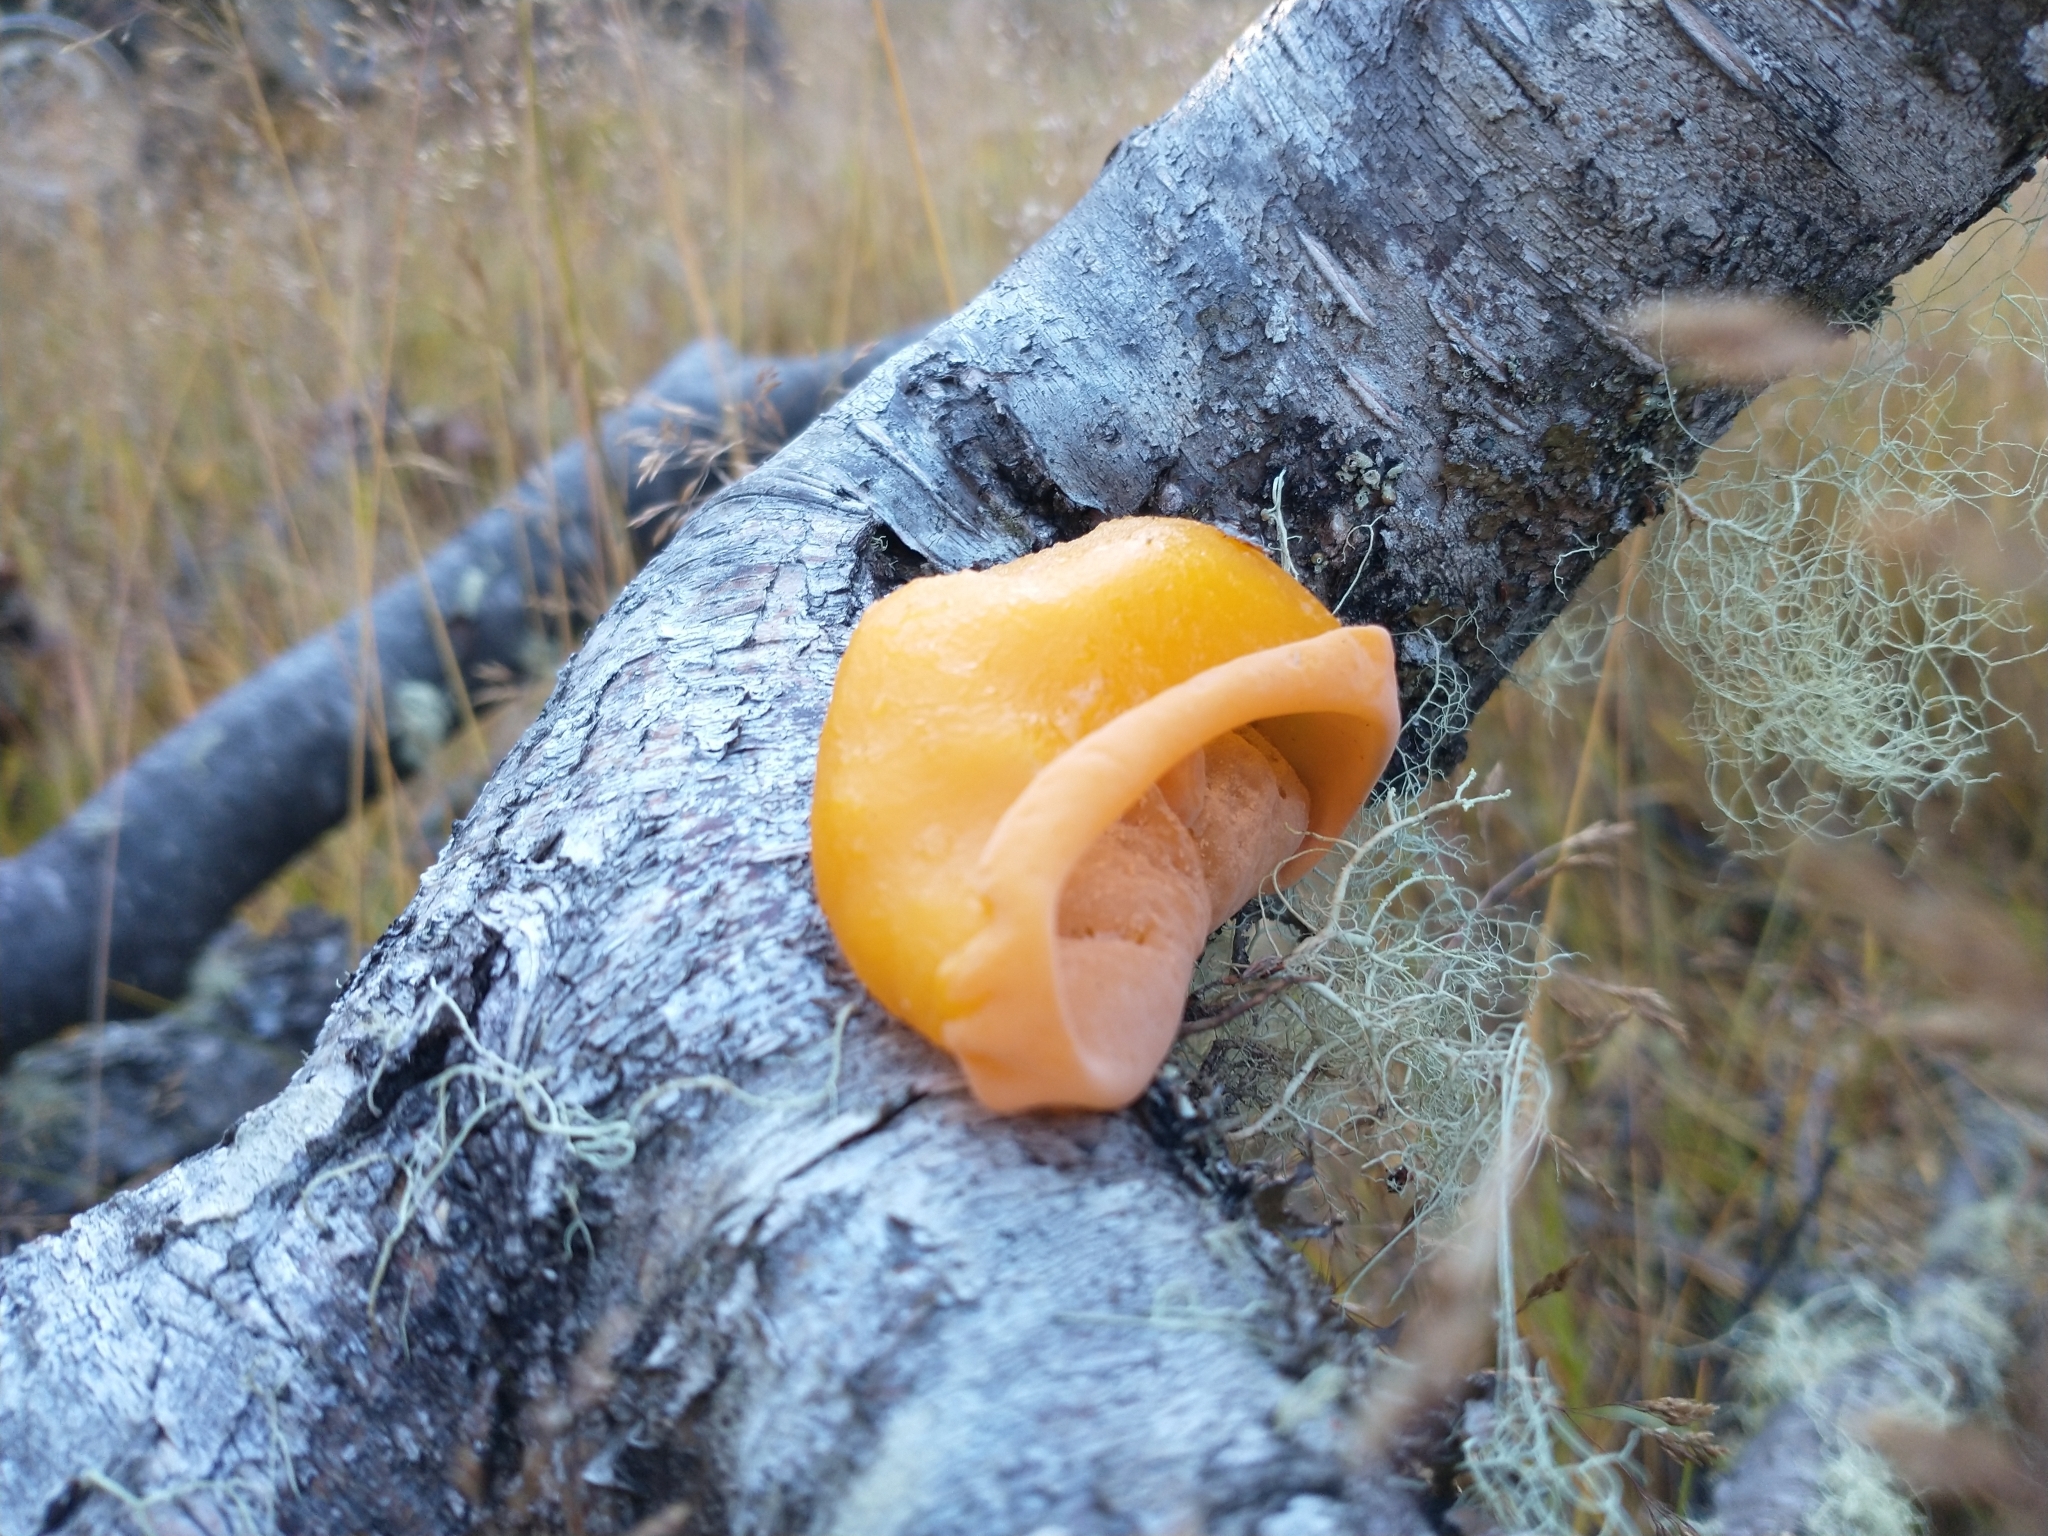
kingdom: Fungi
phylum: Basidiomycota
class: Agaricomycetes
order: Russulales
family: Stereaceae
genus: Aleurodiscus
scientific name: Aleurodiscus vitellinus
